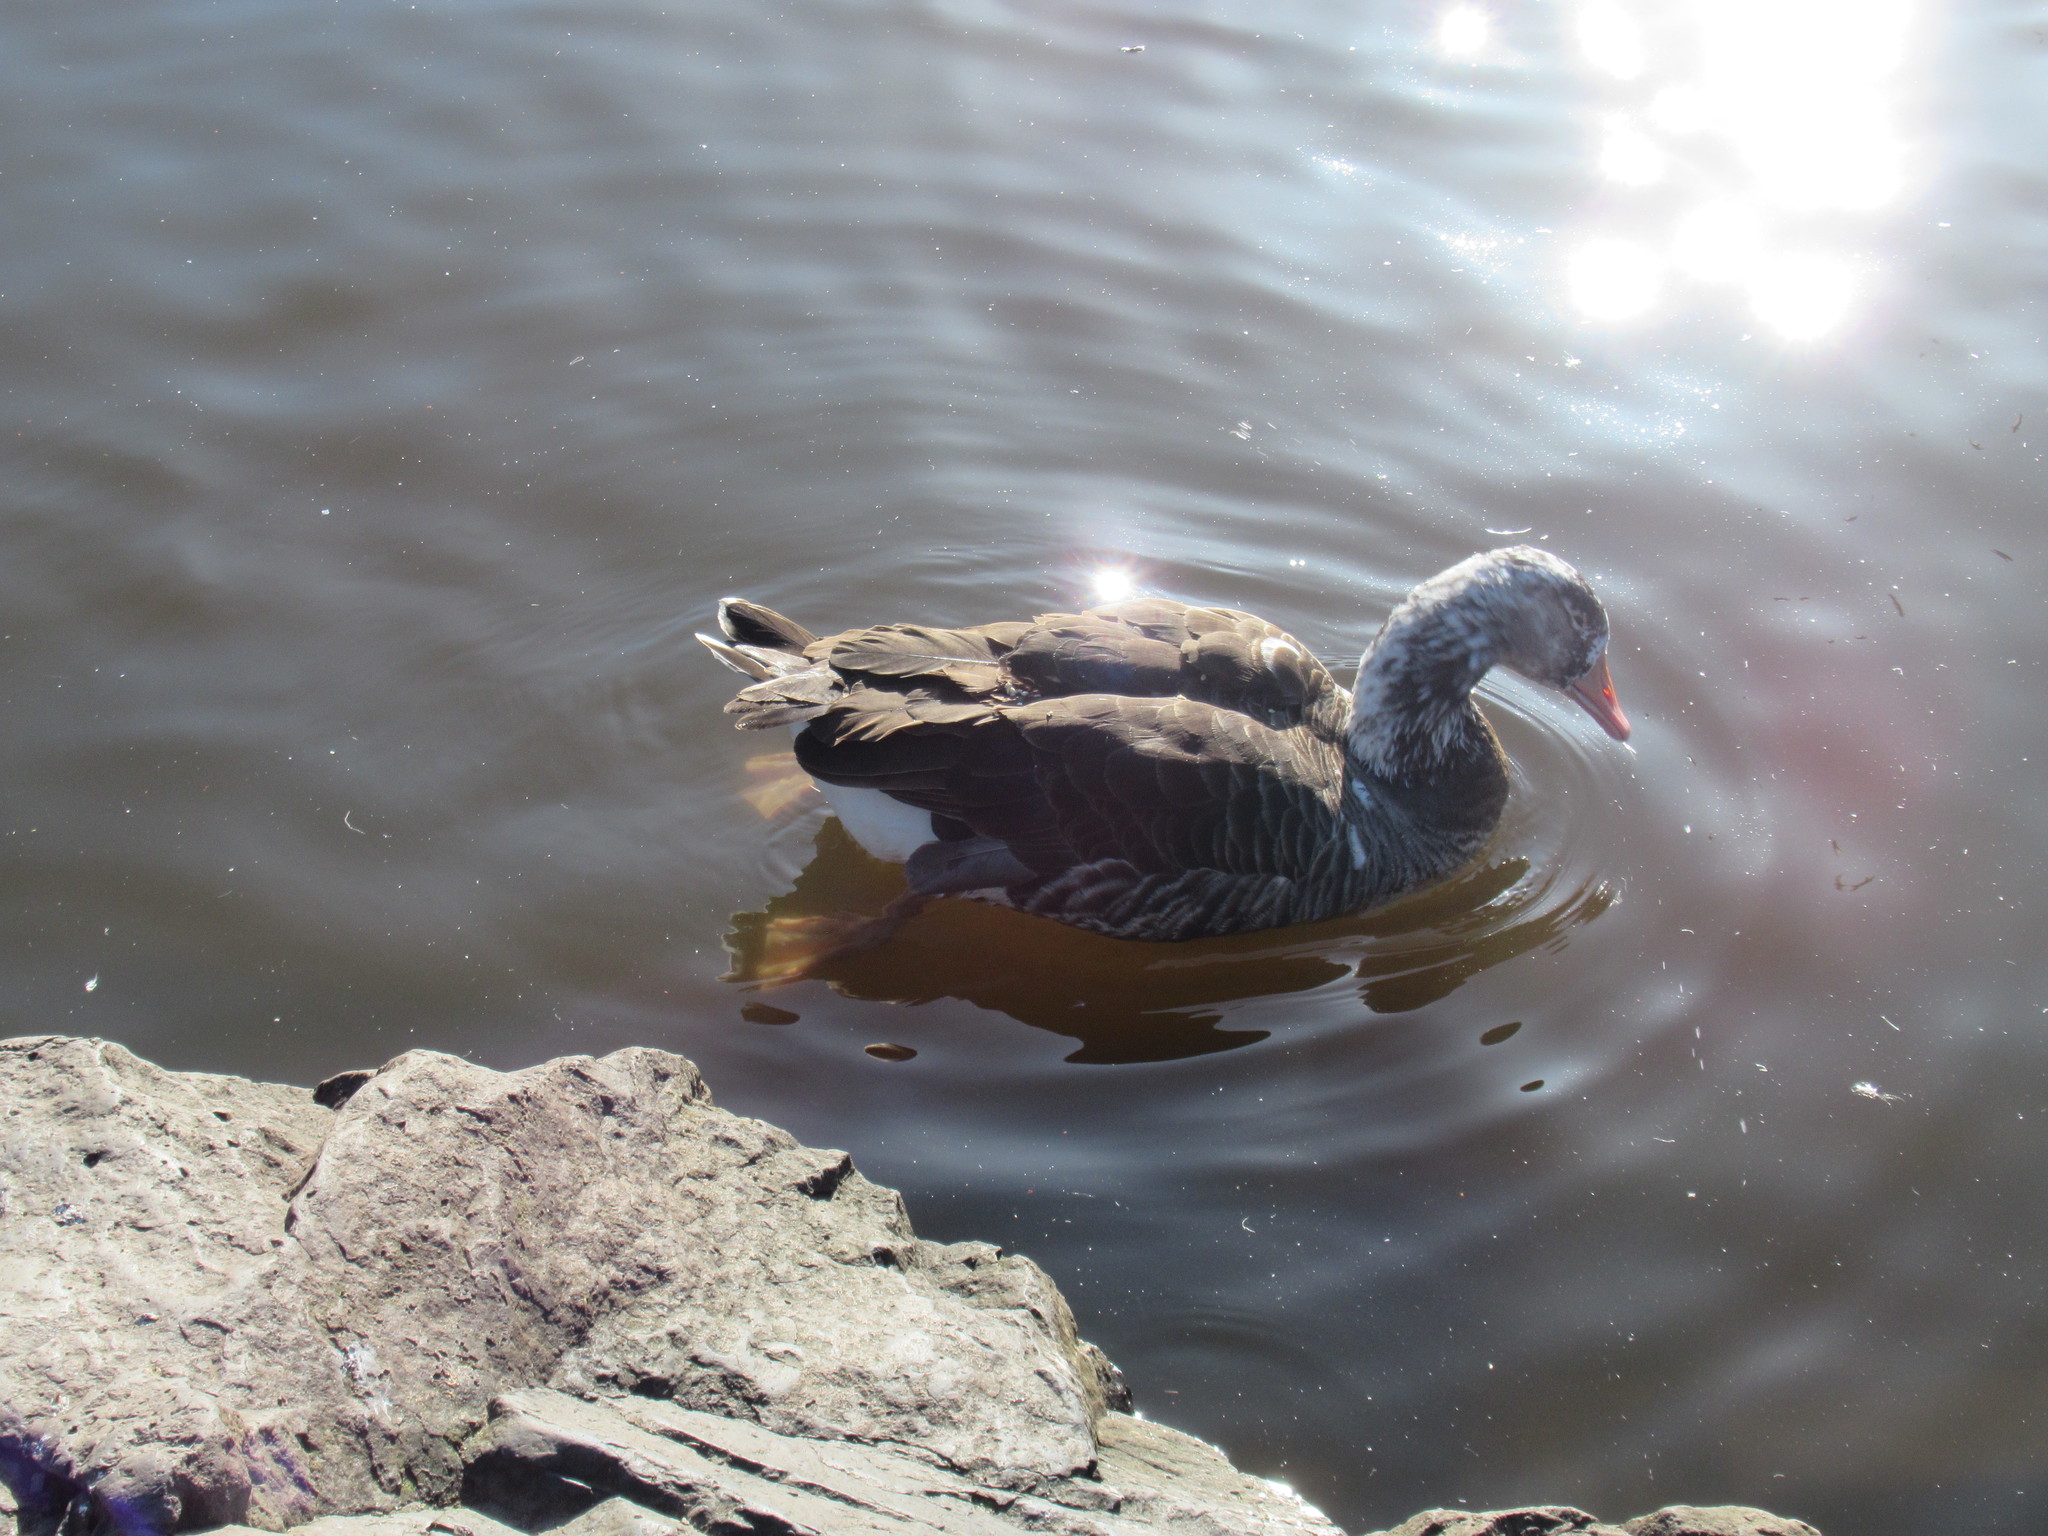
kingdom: Animalia
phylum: Chordata
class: Aves
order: Anseriformes
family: Anatidae
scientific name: Anatidae
